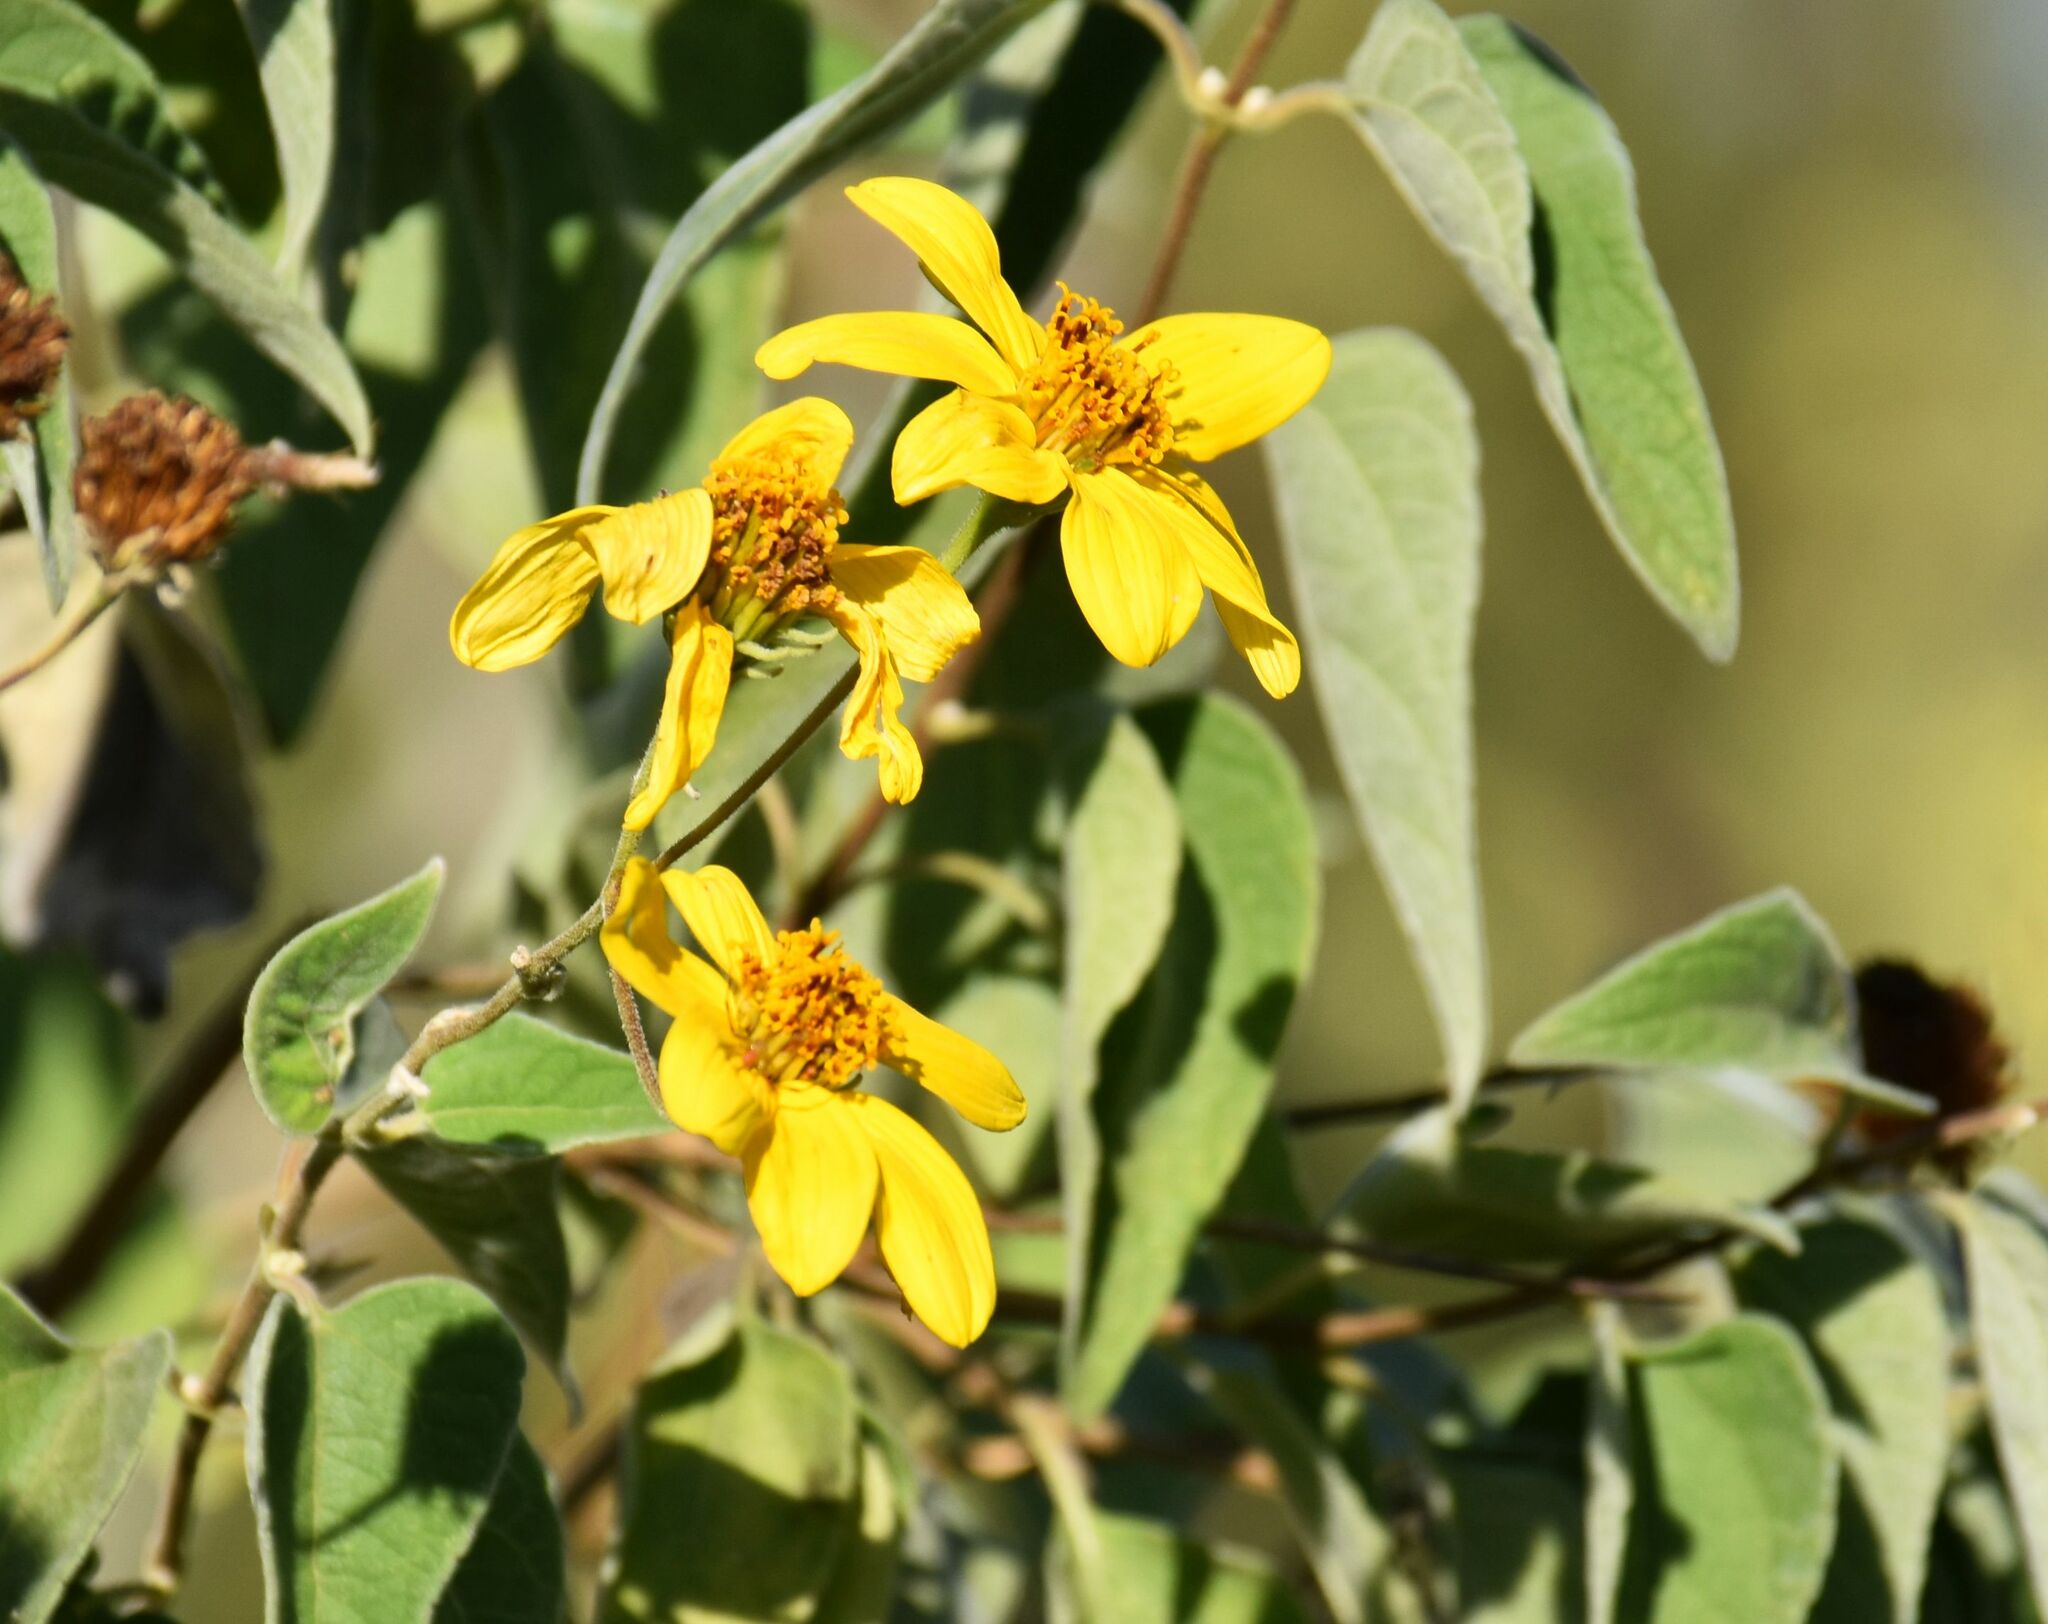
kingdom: Plantae
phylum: Tracheophyta
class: Magnoliopsida
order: Asterales
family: Asteraceae
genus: Bahiopsis
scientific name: Bahiopsis tomentosa
